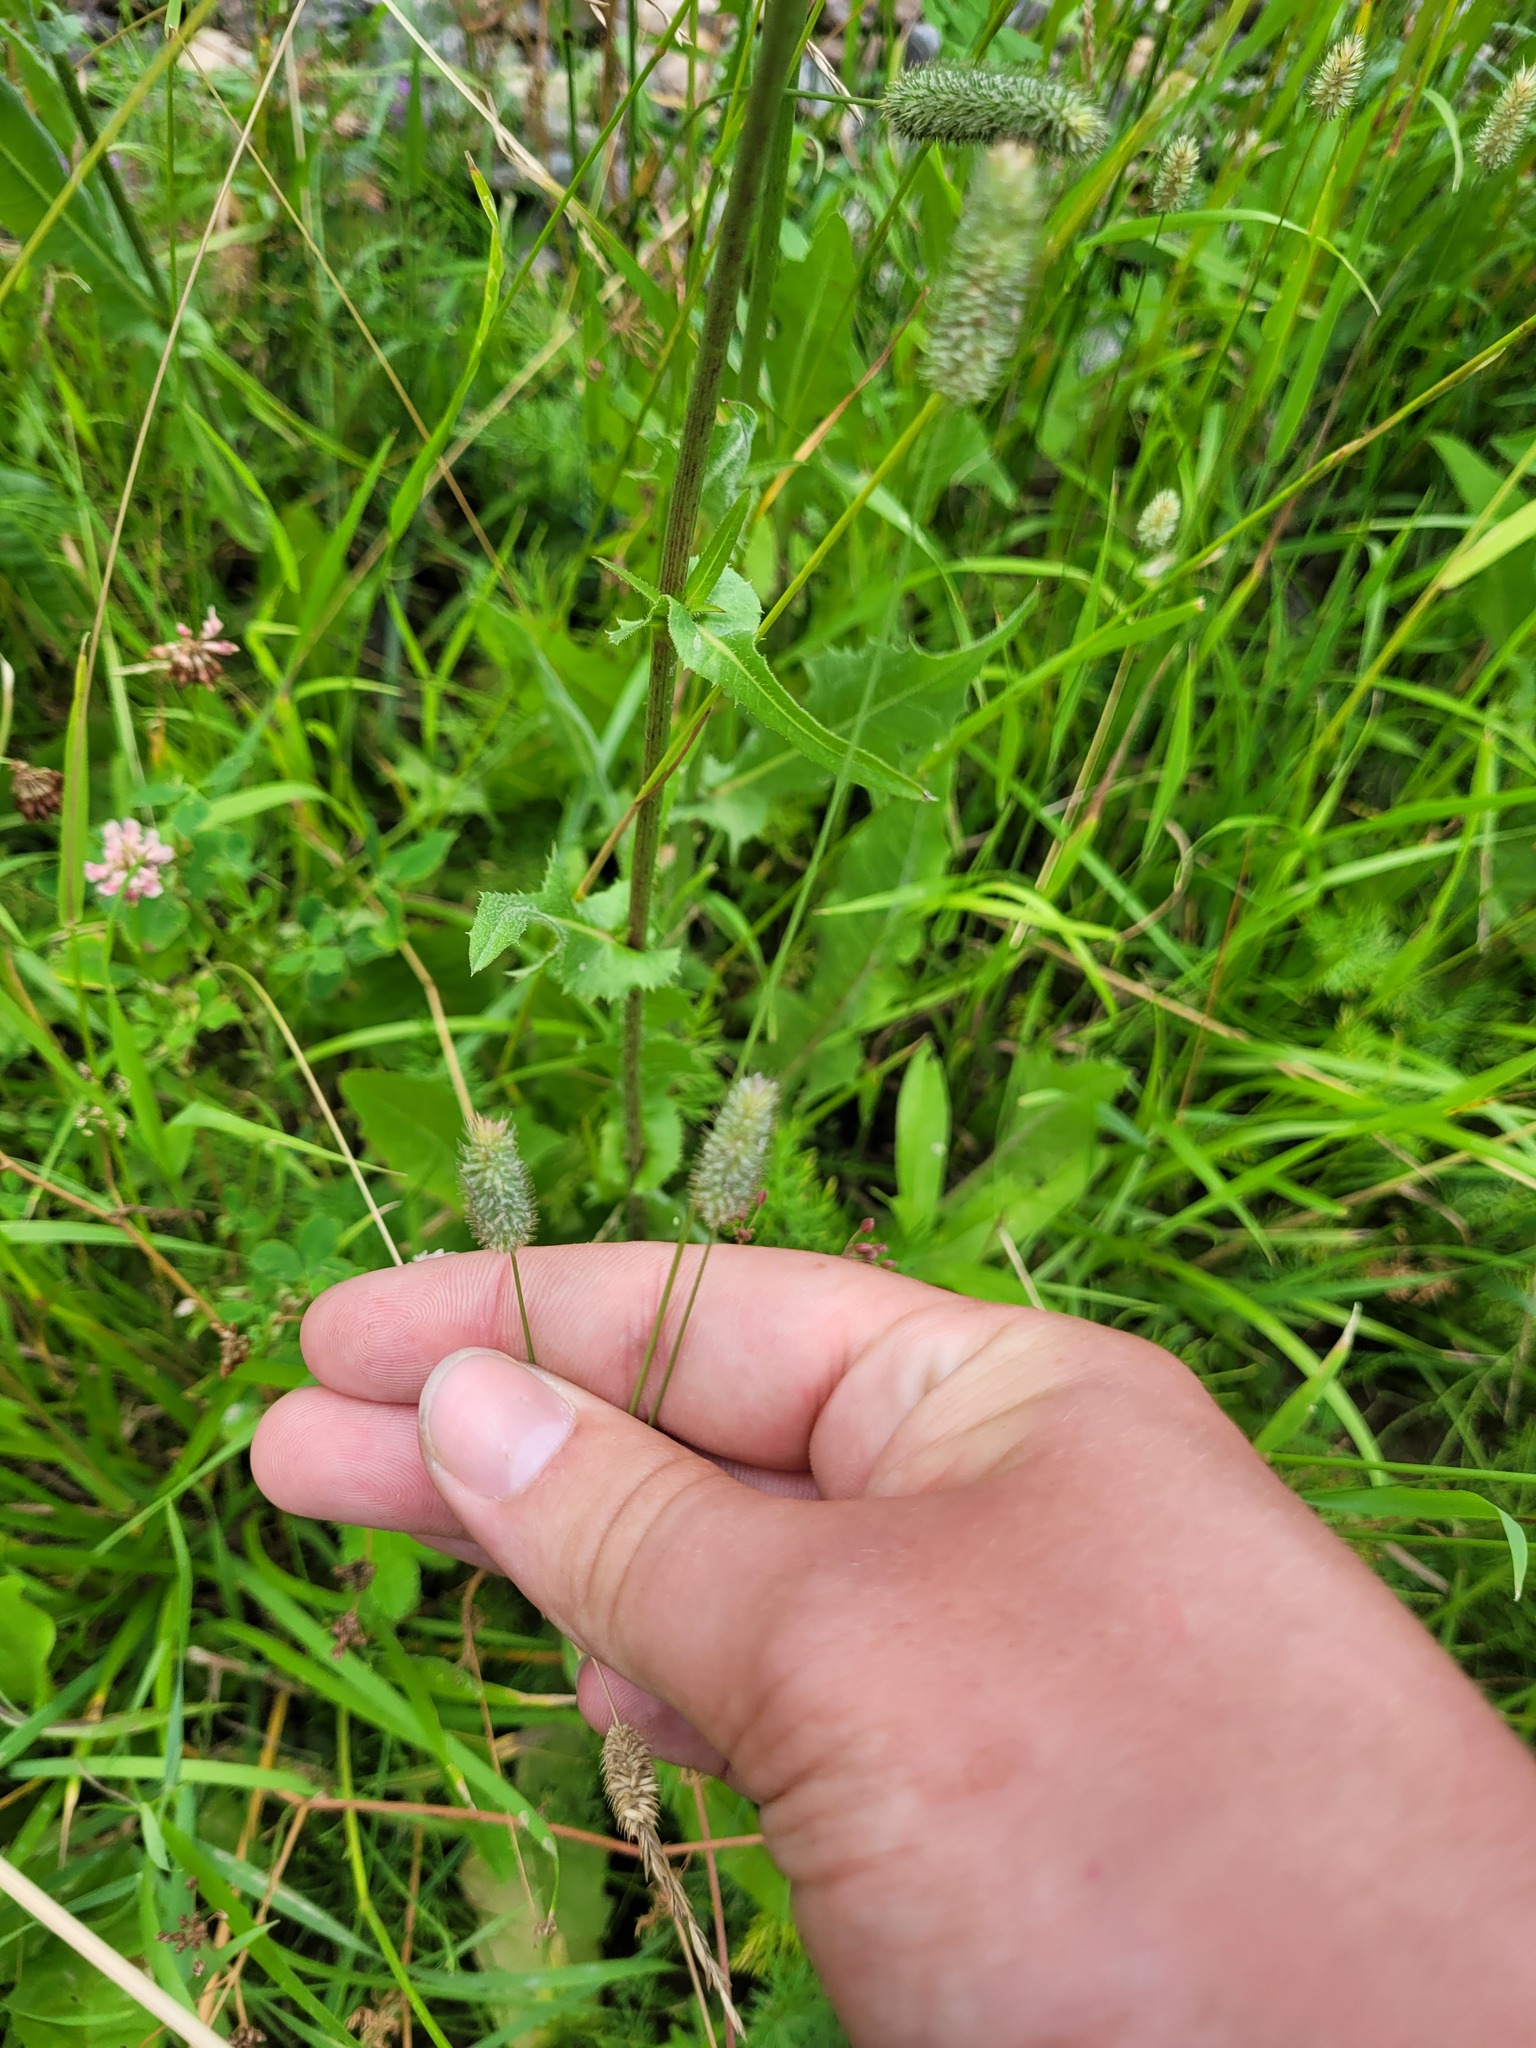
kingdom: Plantae
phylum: Tracheophyta
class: Liliopsida
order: Poales
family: Poaceae
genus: Phleum
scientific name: Phleum pratense
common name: Timothy grass
